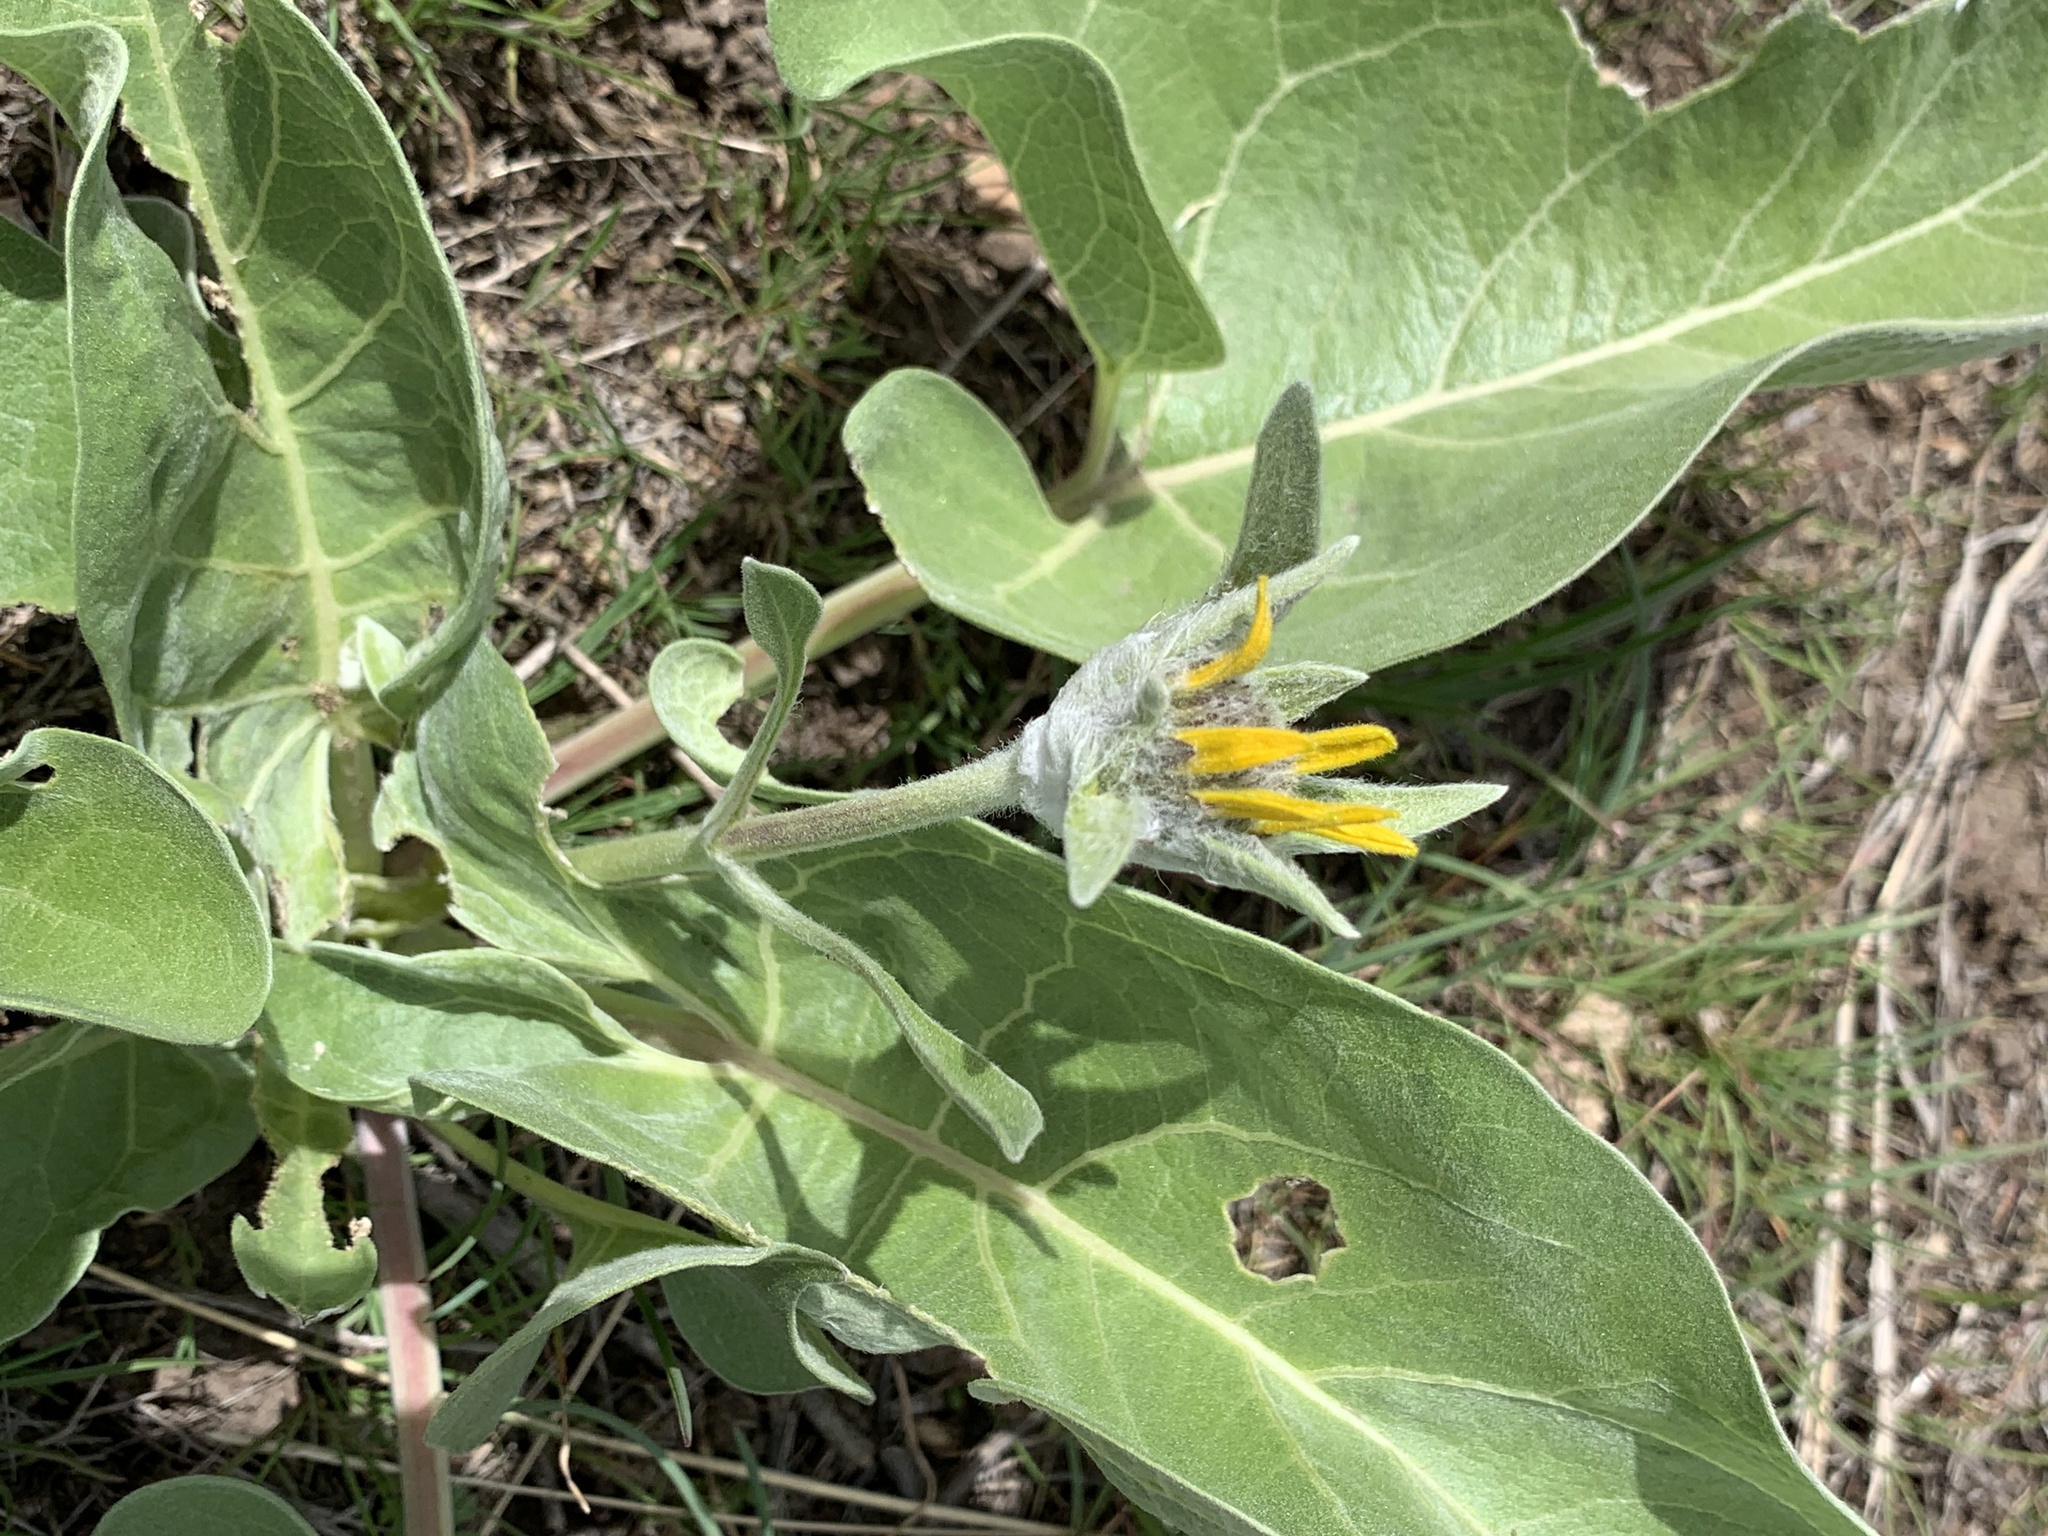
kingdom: Plantae
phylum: Tracheophyta
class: Magnoliopsida
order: Asterales
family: Asteraceae
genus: Wyethia
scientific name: Wyethia sagittata
